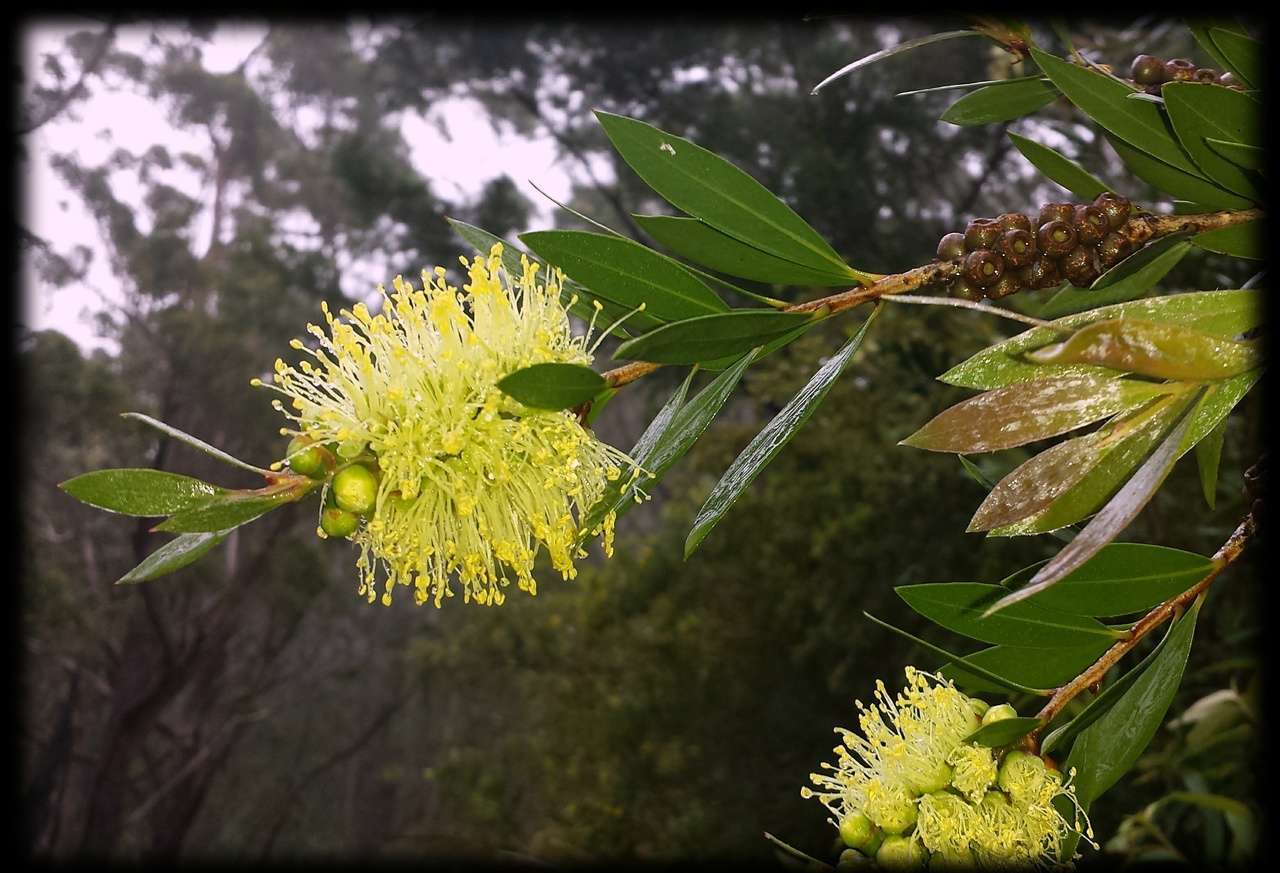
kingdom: Plantae
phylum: Tracheophyta
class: Magnoliopsida
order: Myrtales
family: Myrtaceae
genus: Melaleuca
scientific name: Melaleuca pallida
